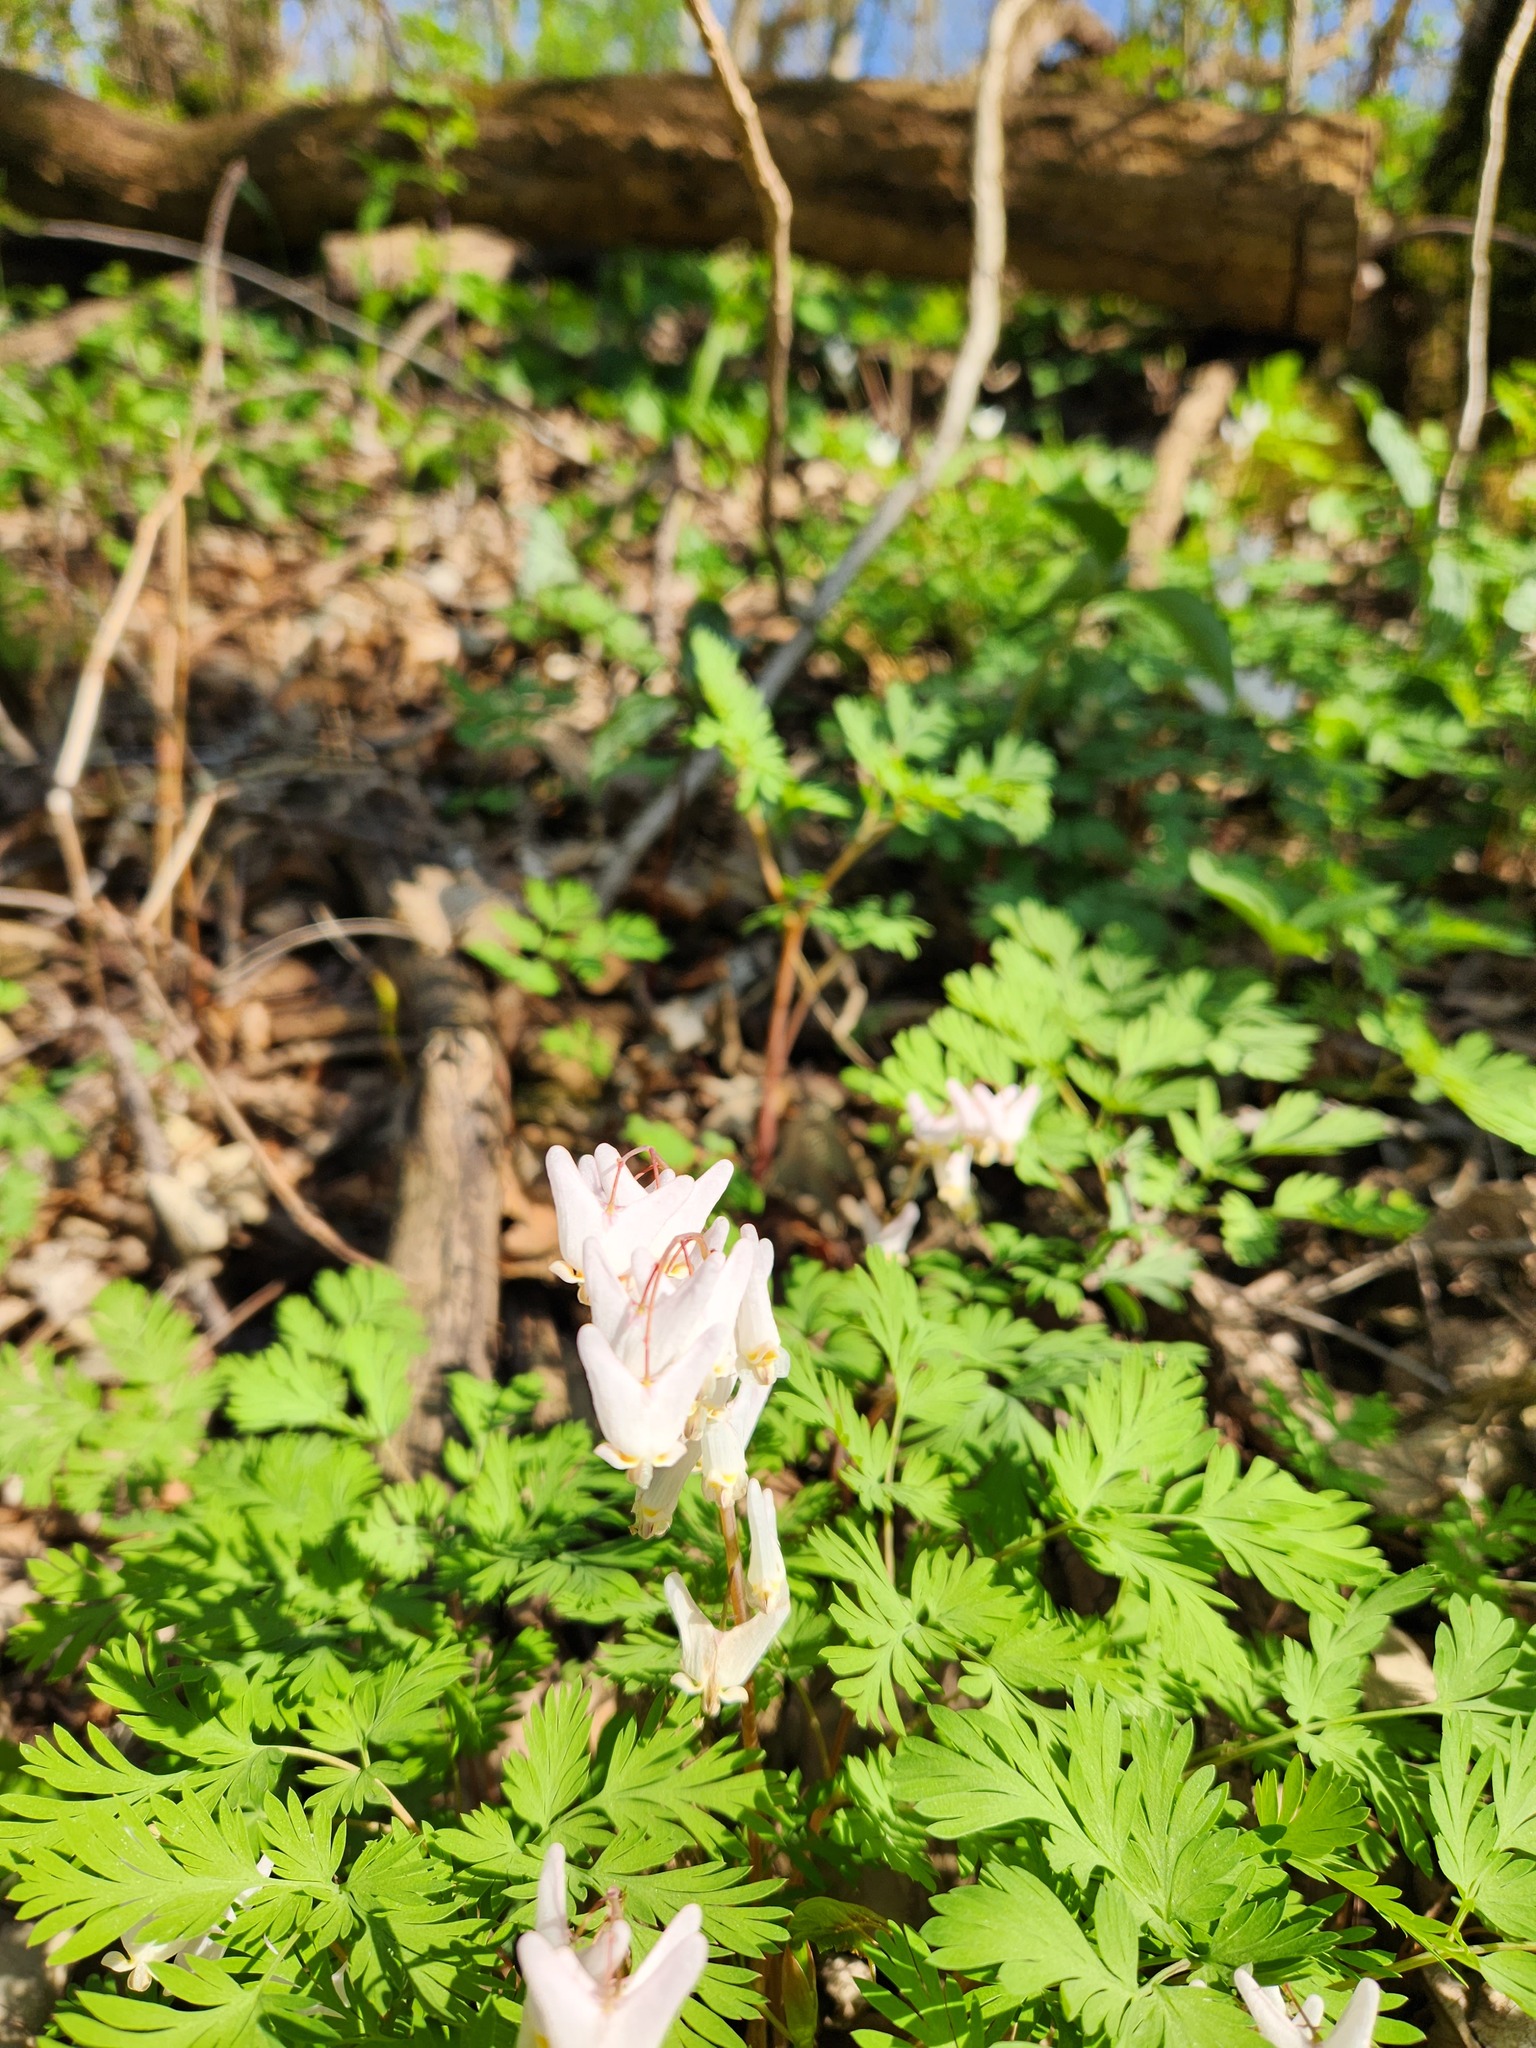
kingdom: Plantae
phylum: Tracheophyta
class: Magnoliopsida
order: Ranunculales
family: Papaveraceae
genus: Dicentra
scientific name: Dicentra cucullaria
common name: Dutchman's breeches
